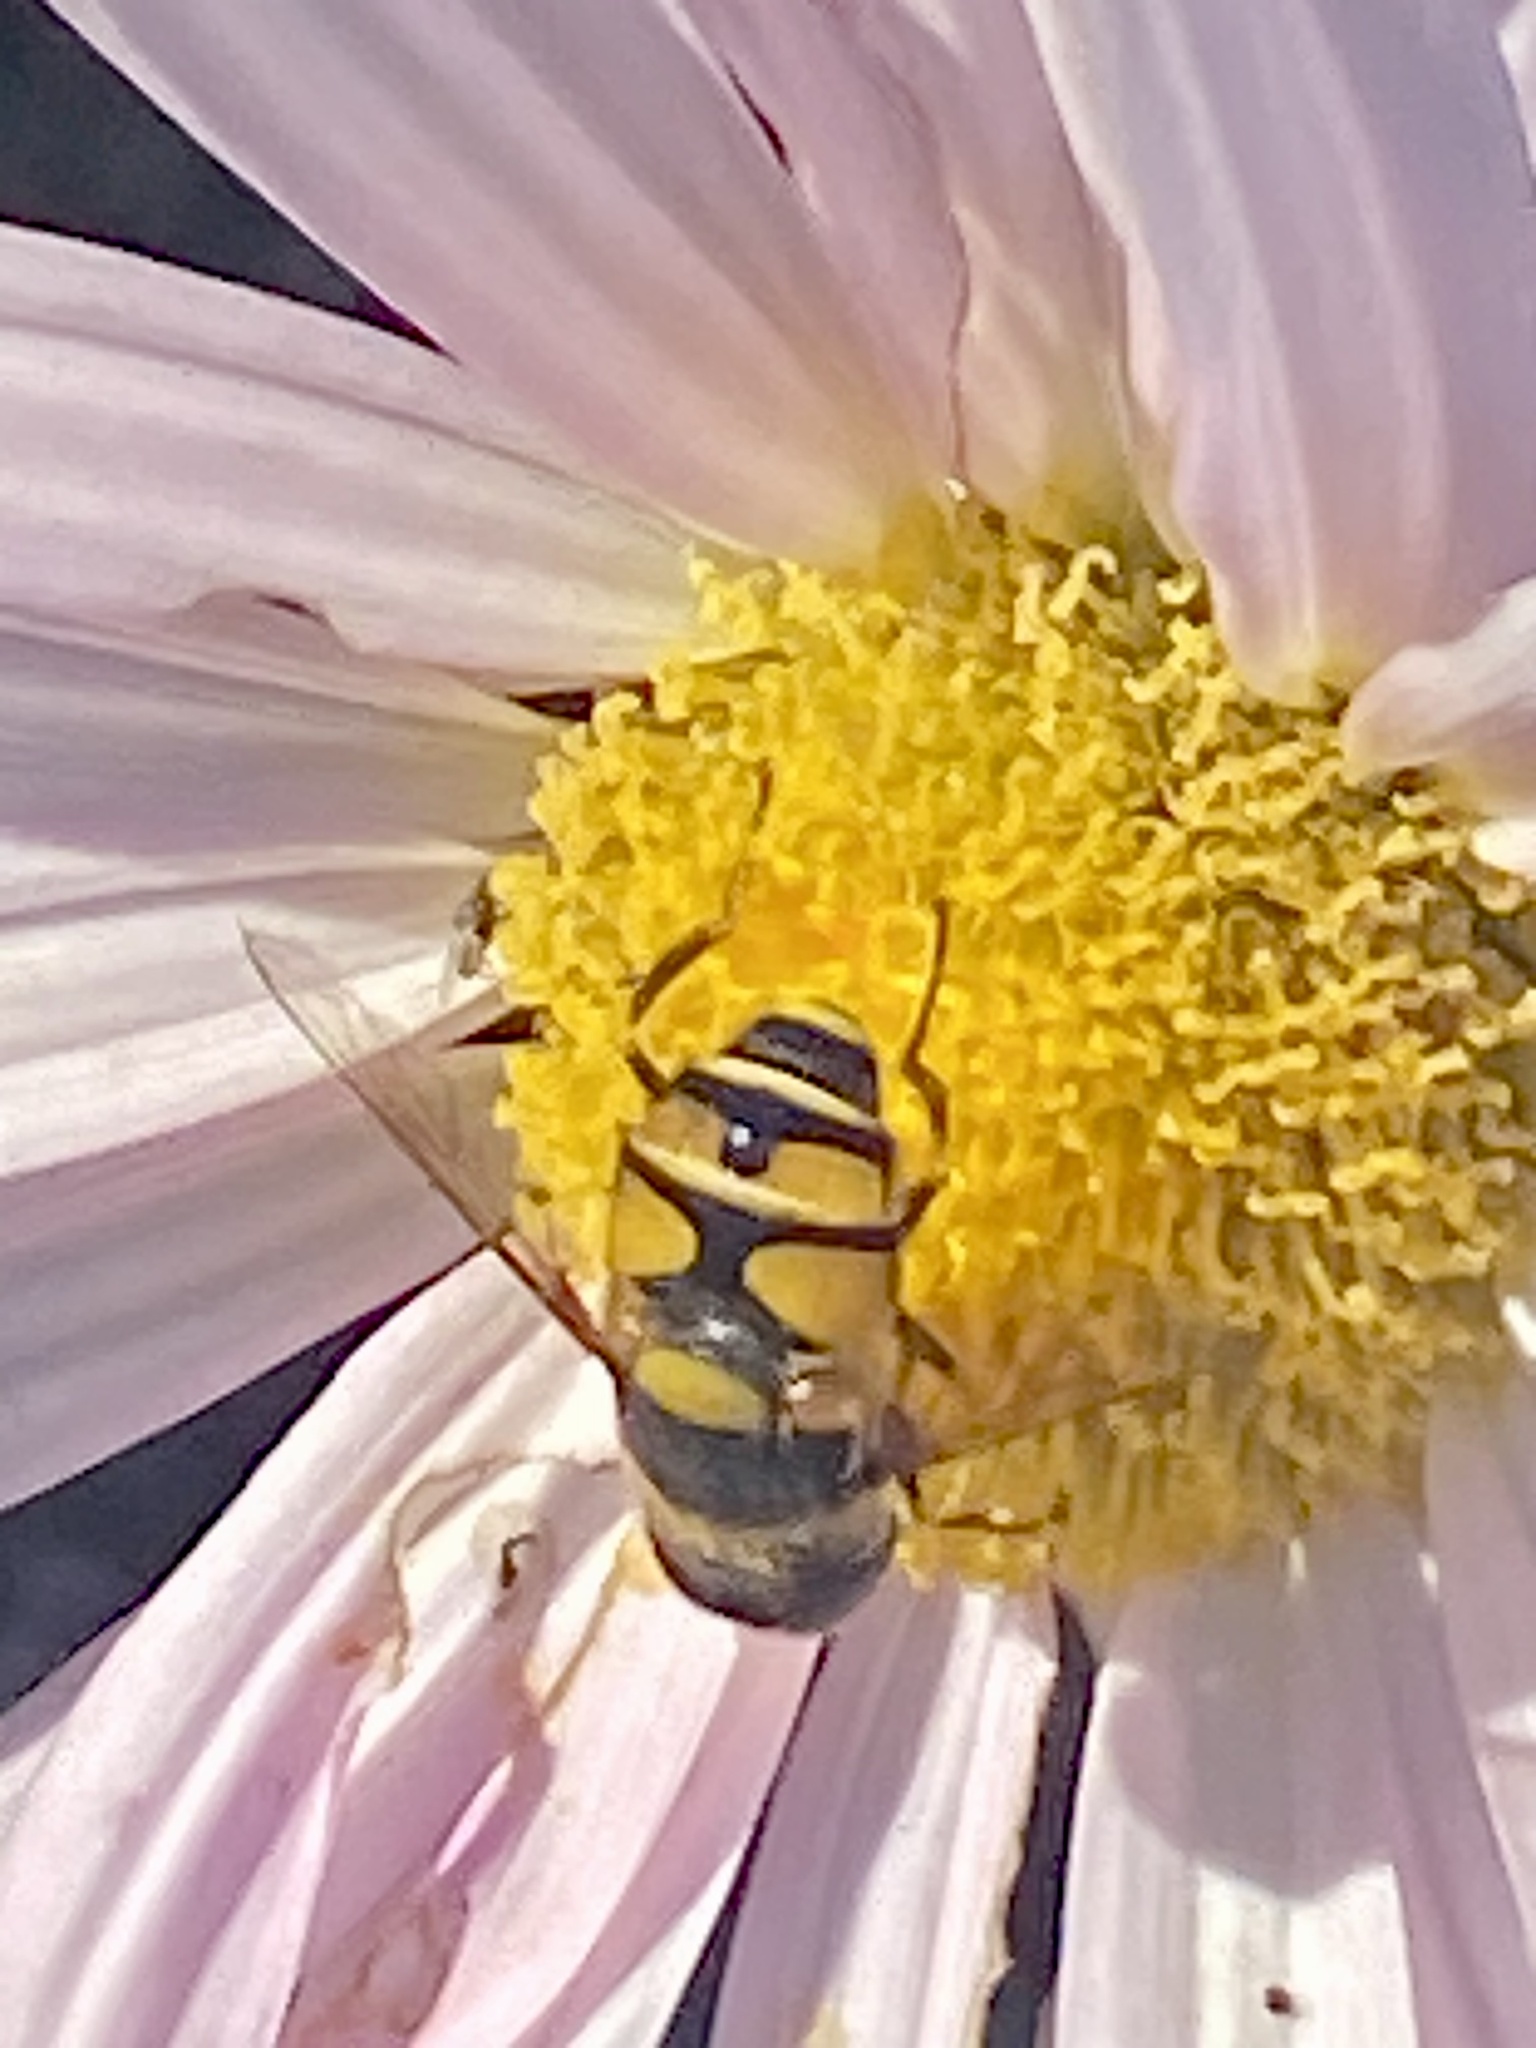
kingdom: Animalia
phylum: Arthropoda
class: Insecta
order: Diptera
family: Syrphidae
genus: Eristalis
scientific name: Eristalis transversa
